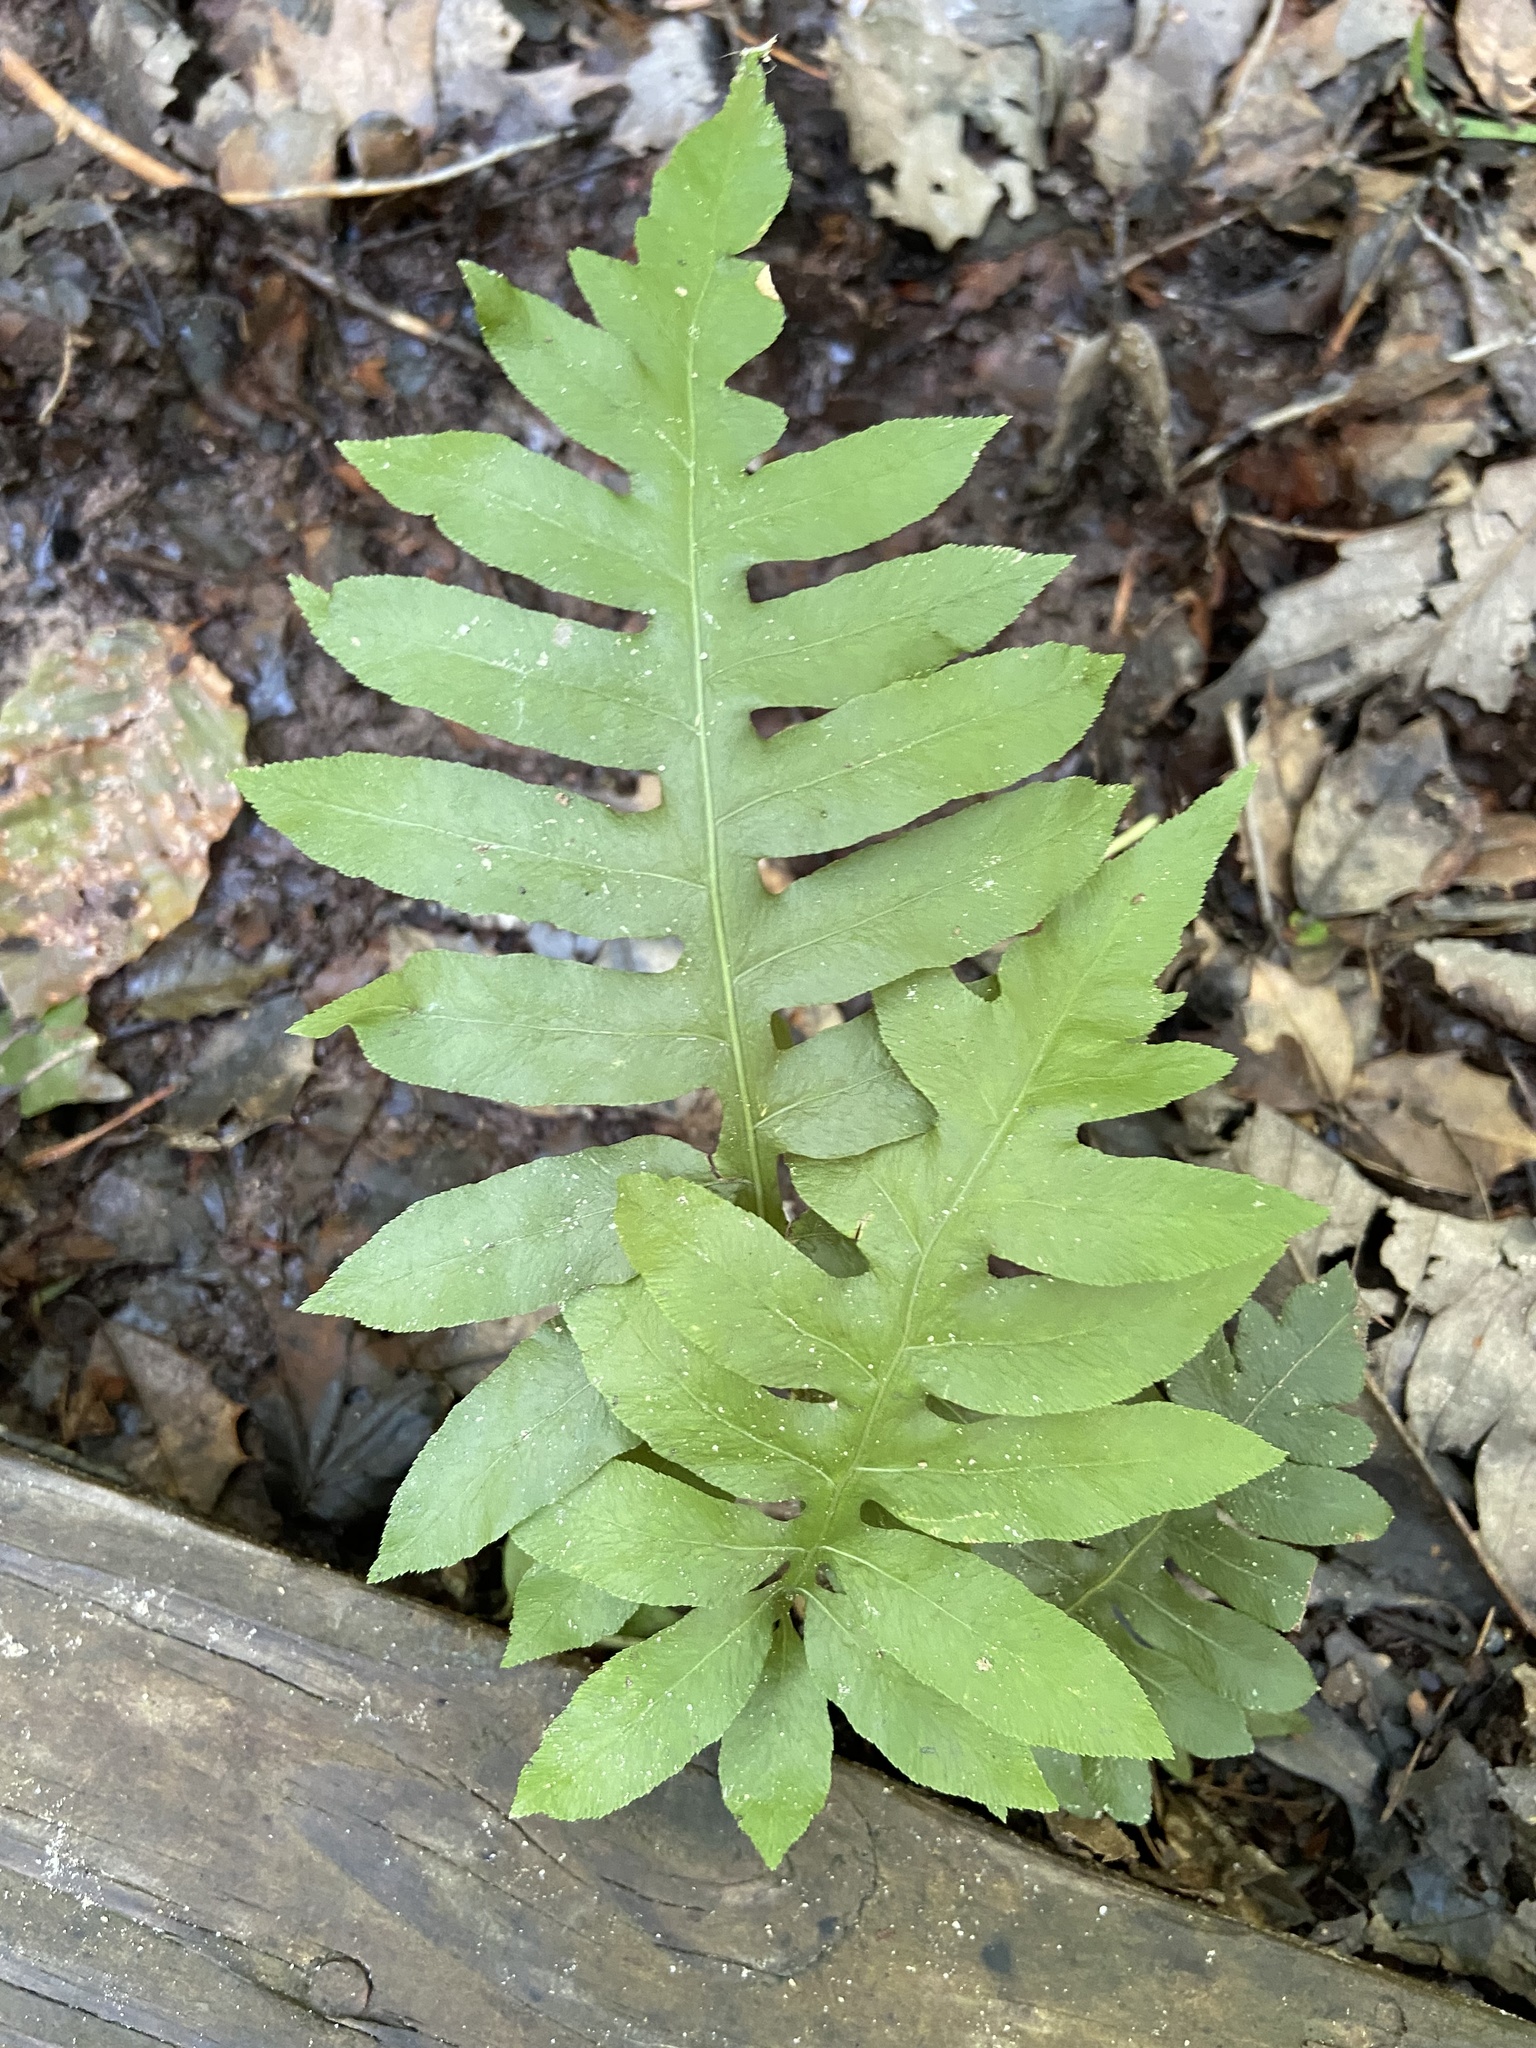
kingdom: Plantae
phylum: Tracheophyta
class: Polypodiopsida
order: Polypodiales
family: Blechnaceae
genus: Lorinseria
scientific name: Lorinseria areolata
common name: Dwarf chain fern
